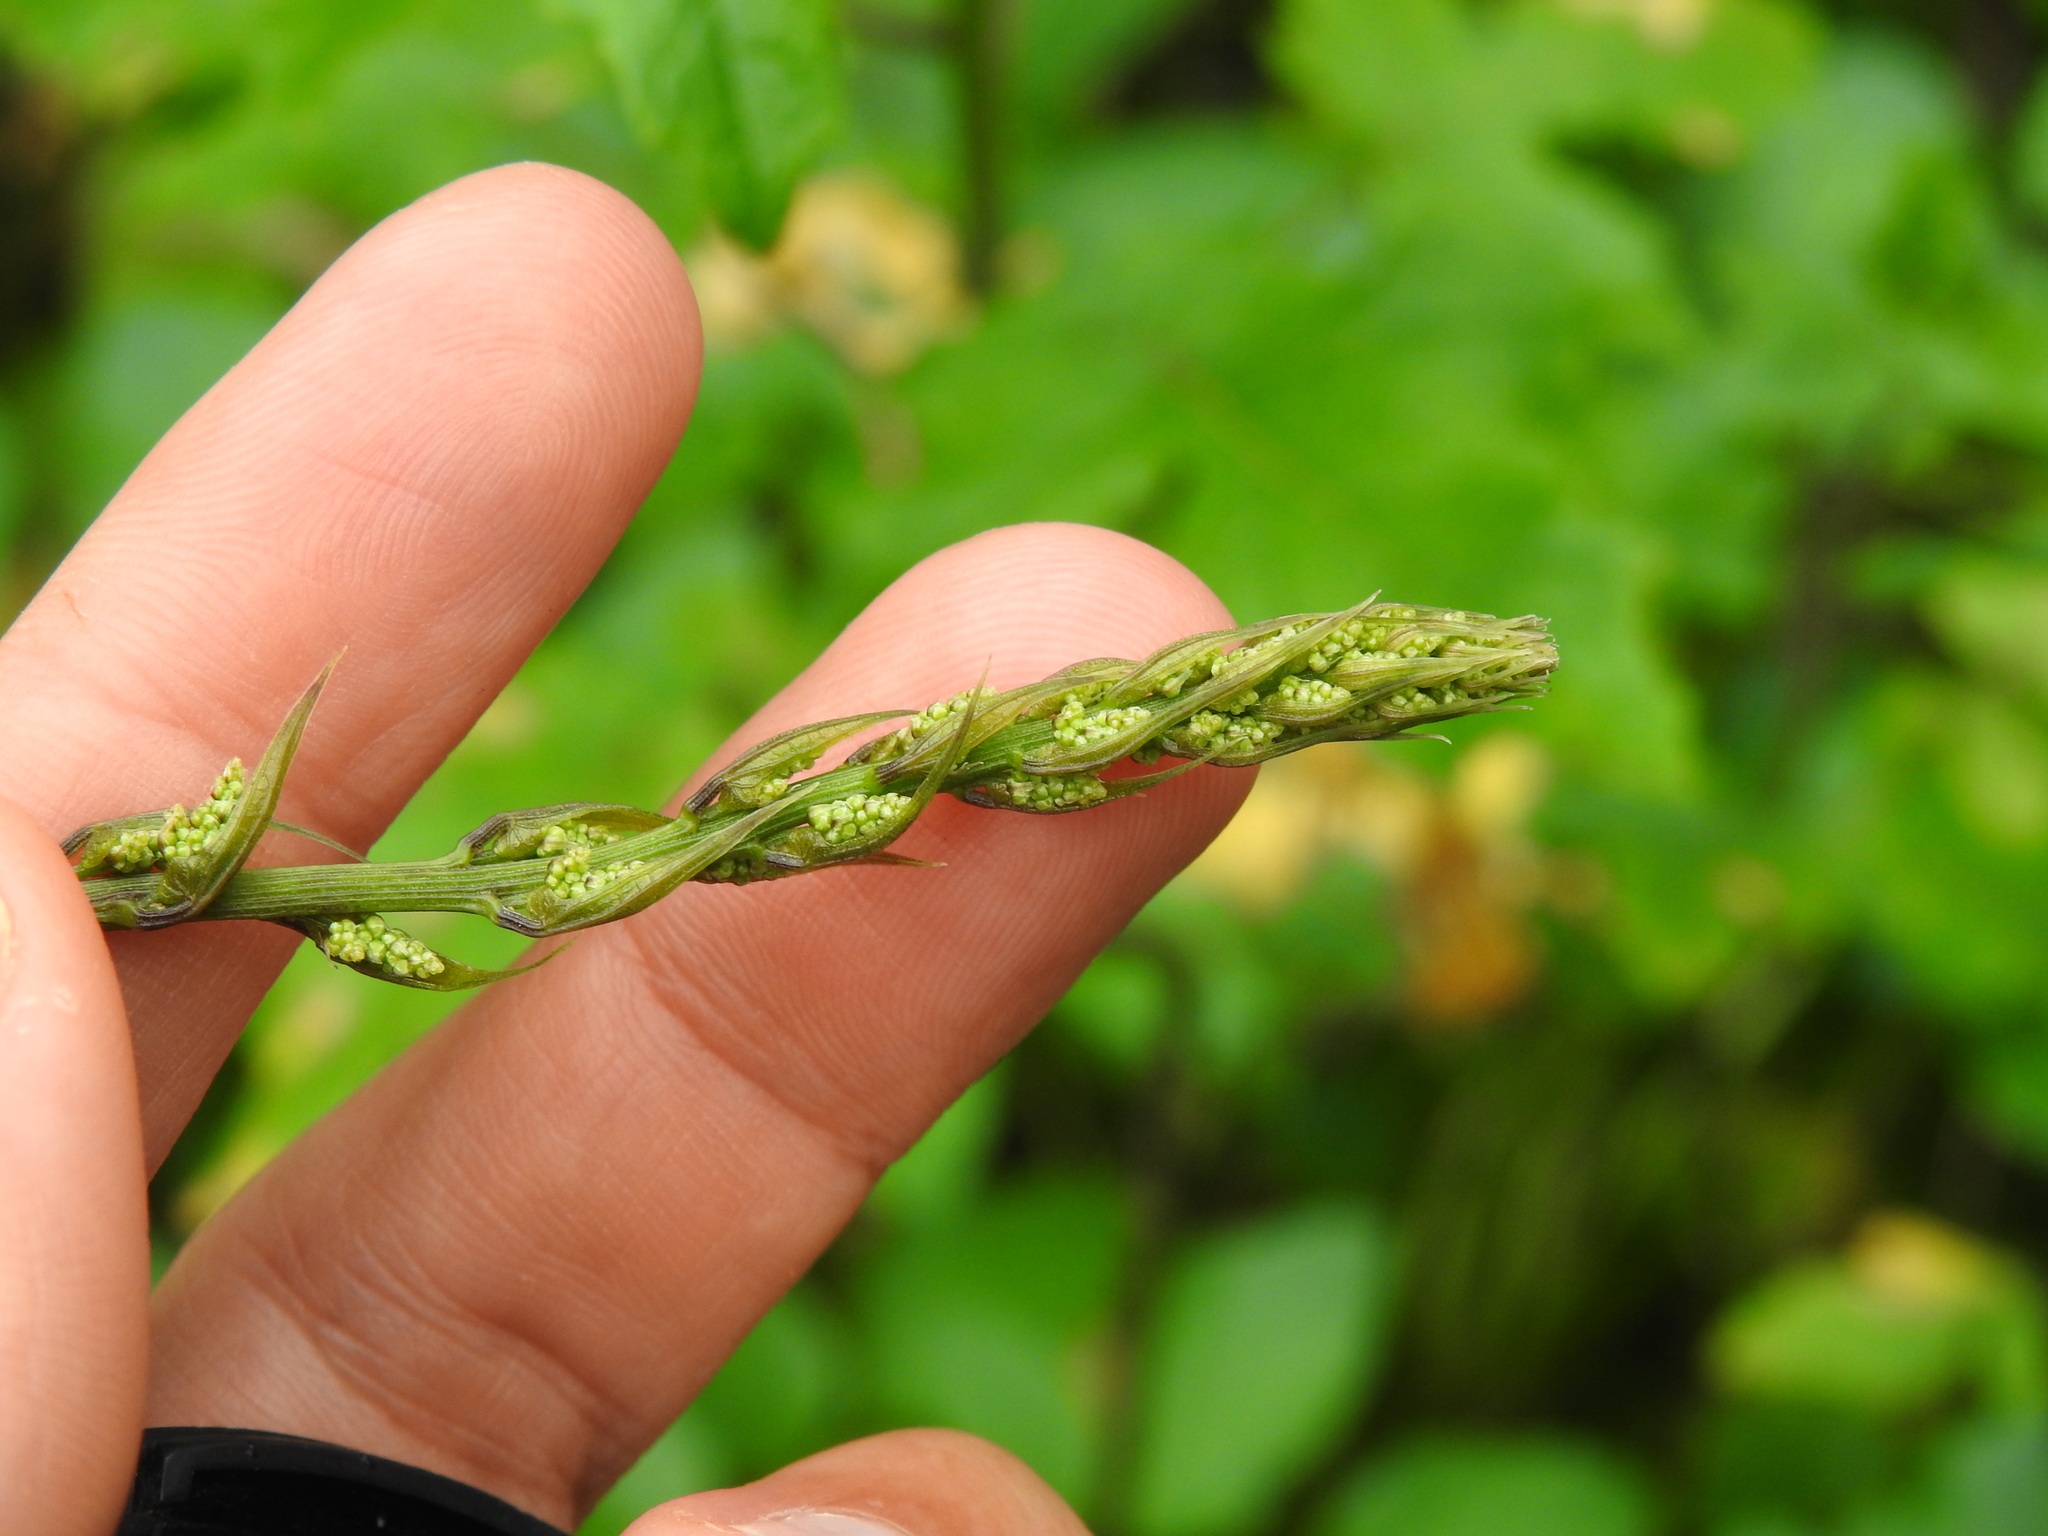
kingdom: Plantae
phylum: Tracheophyta
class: Liliopsida
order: Dioscoreales
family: Dioscoreaceae
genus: Dioscorea
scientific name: Dioscorea communis
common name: Black-bindweed
